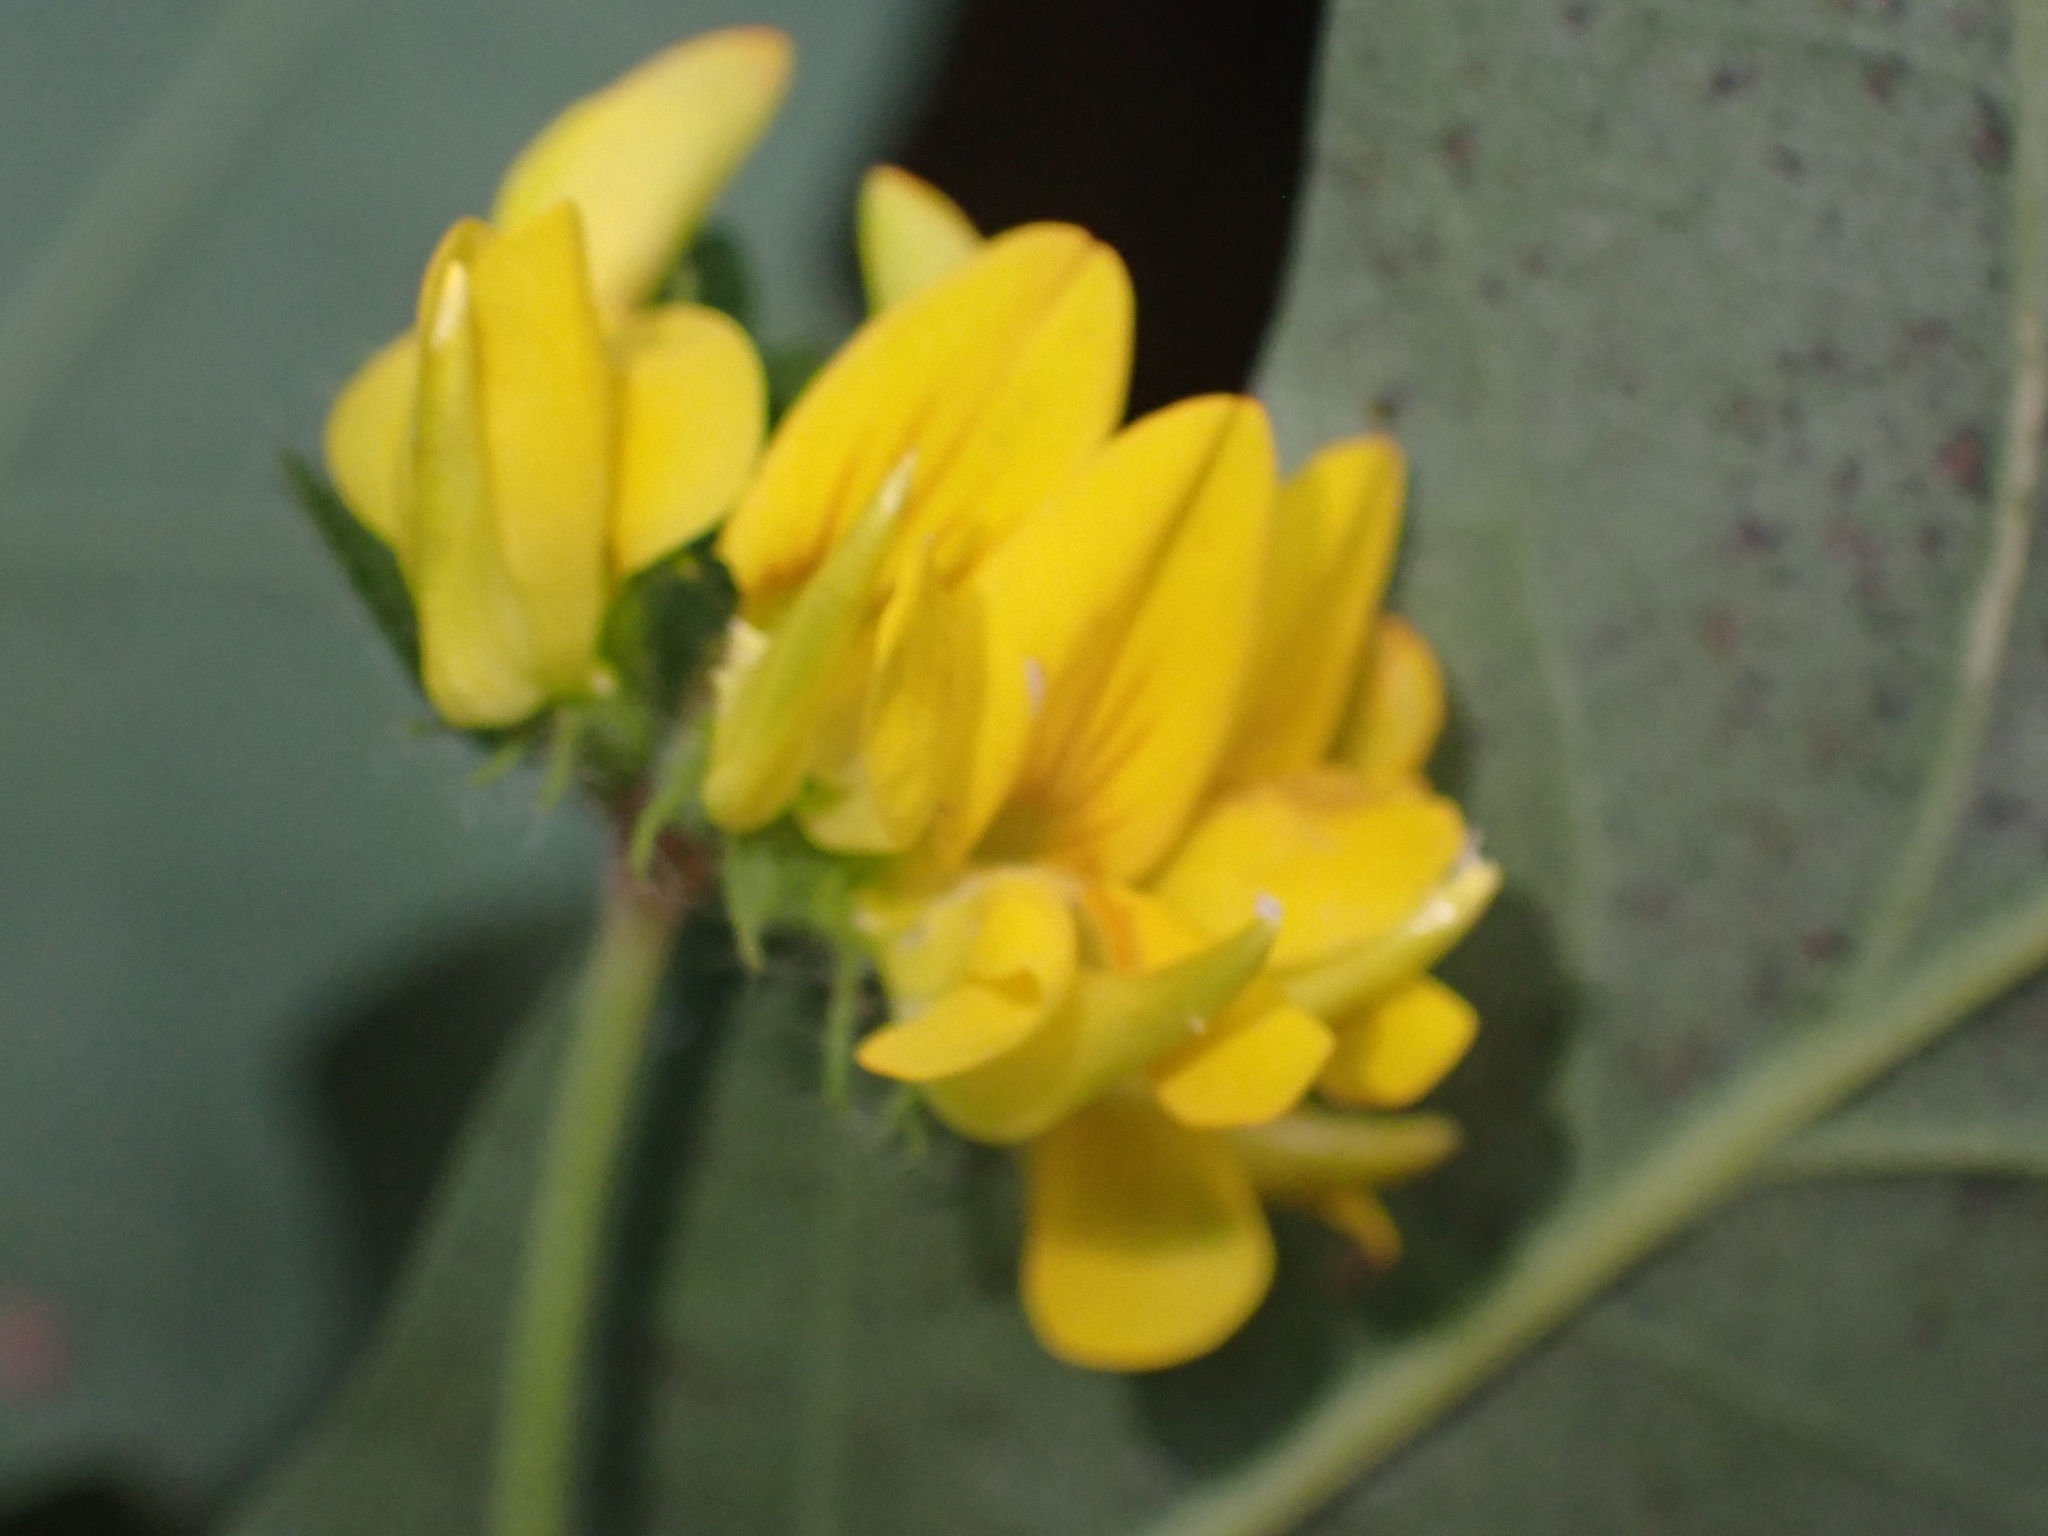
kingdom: Plantae
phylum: Tracheophyta
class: Magnoliopsida
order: Fabales
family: Fabaceae
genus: Lotus
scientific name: Lotus pedunculatus
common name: Greater birdsfoot-trefoil
